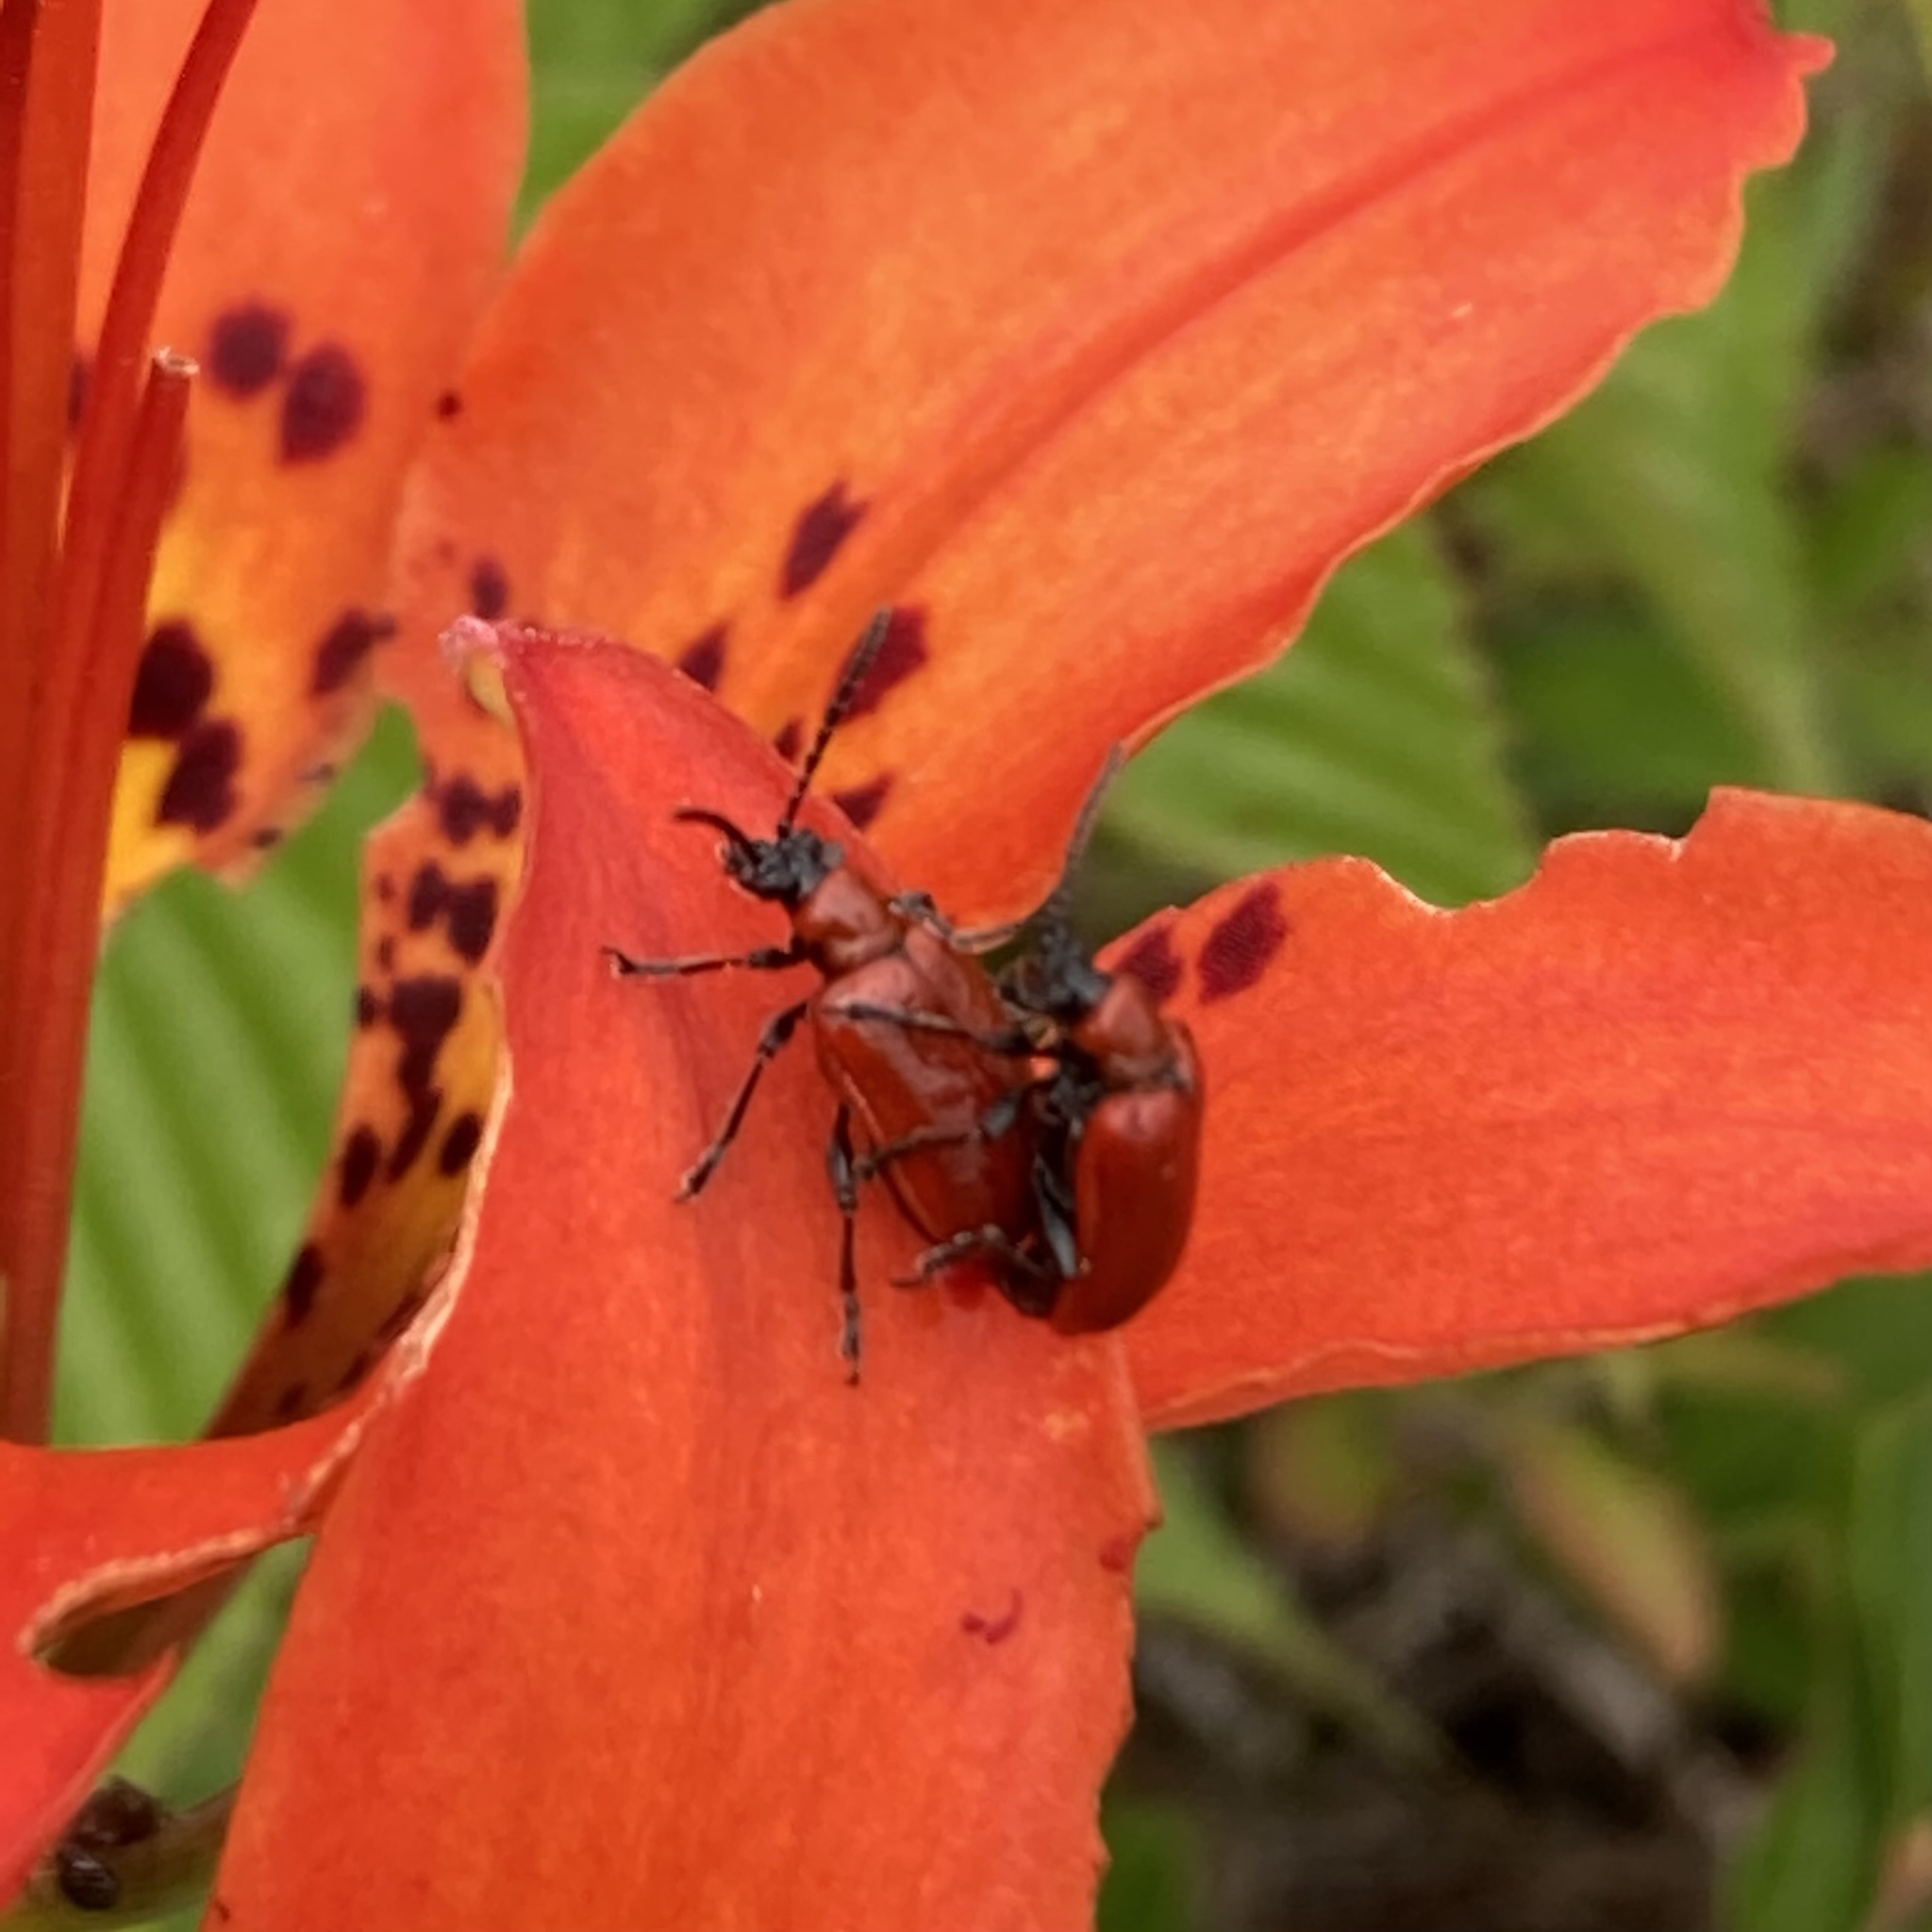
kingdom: Animalia
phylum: Arthropoda
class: Insecta
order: Coleoptera
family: Chrysomelidae
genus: Lilioceris
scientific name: Lilioceris lilii
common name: Lily beetle
